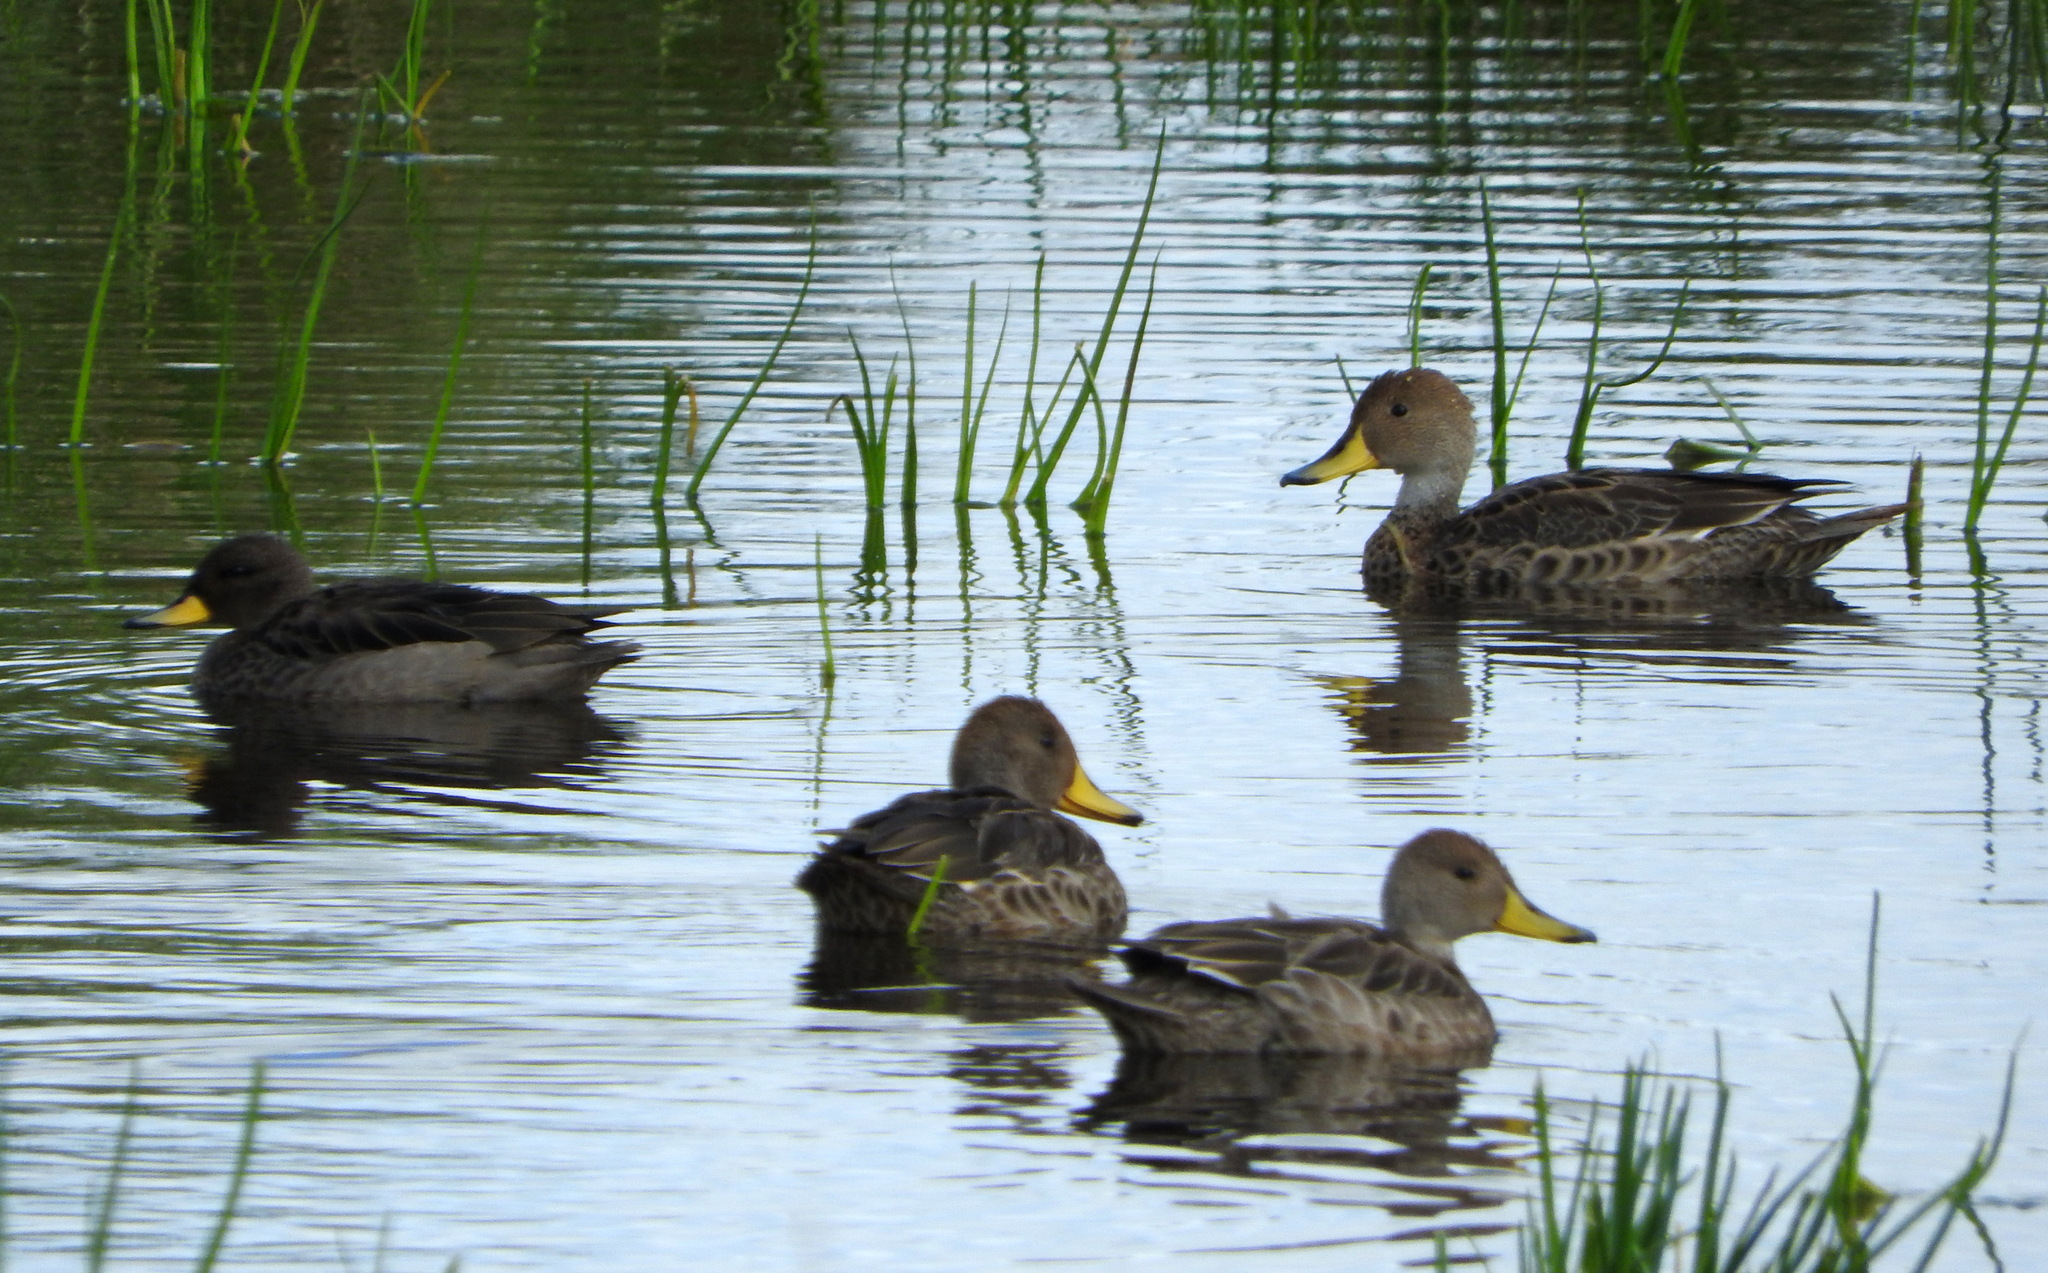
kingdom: Animalia
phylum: Chordata
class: Aves
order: Anseriformes
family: Anatidae
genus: Anas
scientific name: Anas flavirostris
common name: Yellow-billed teal
